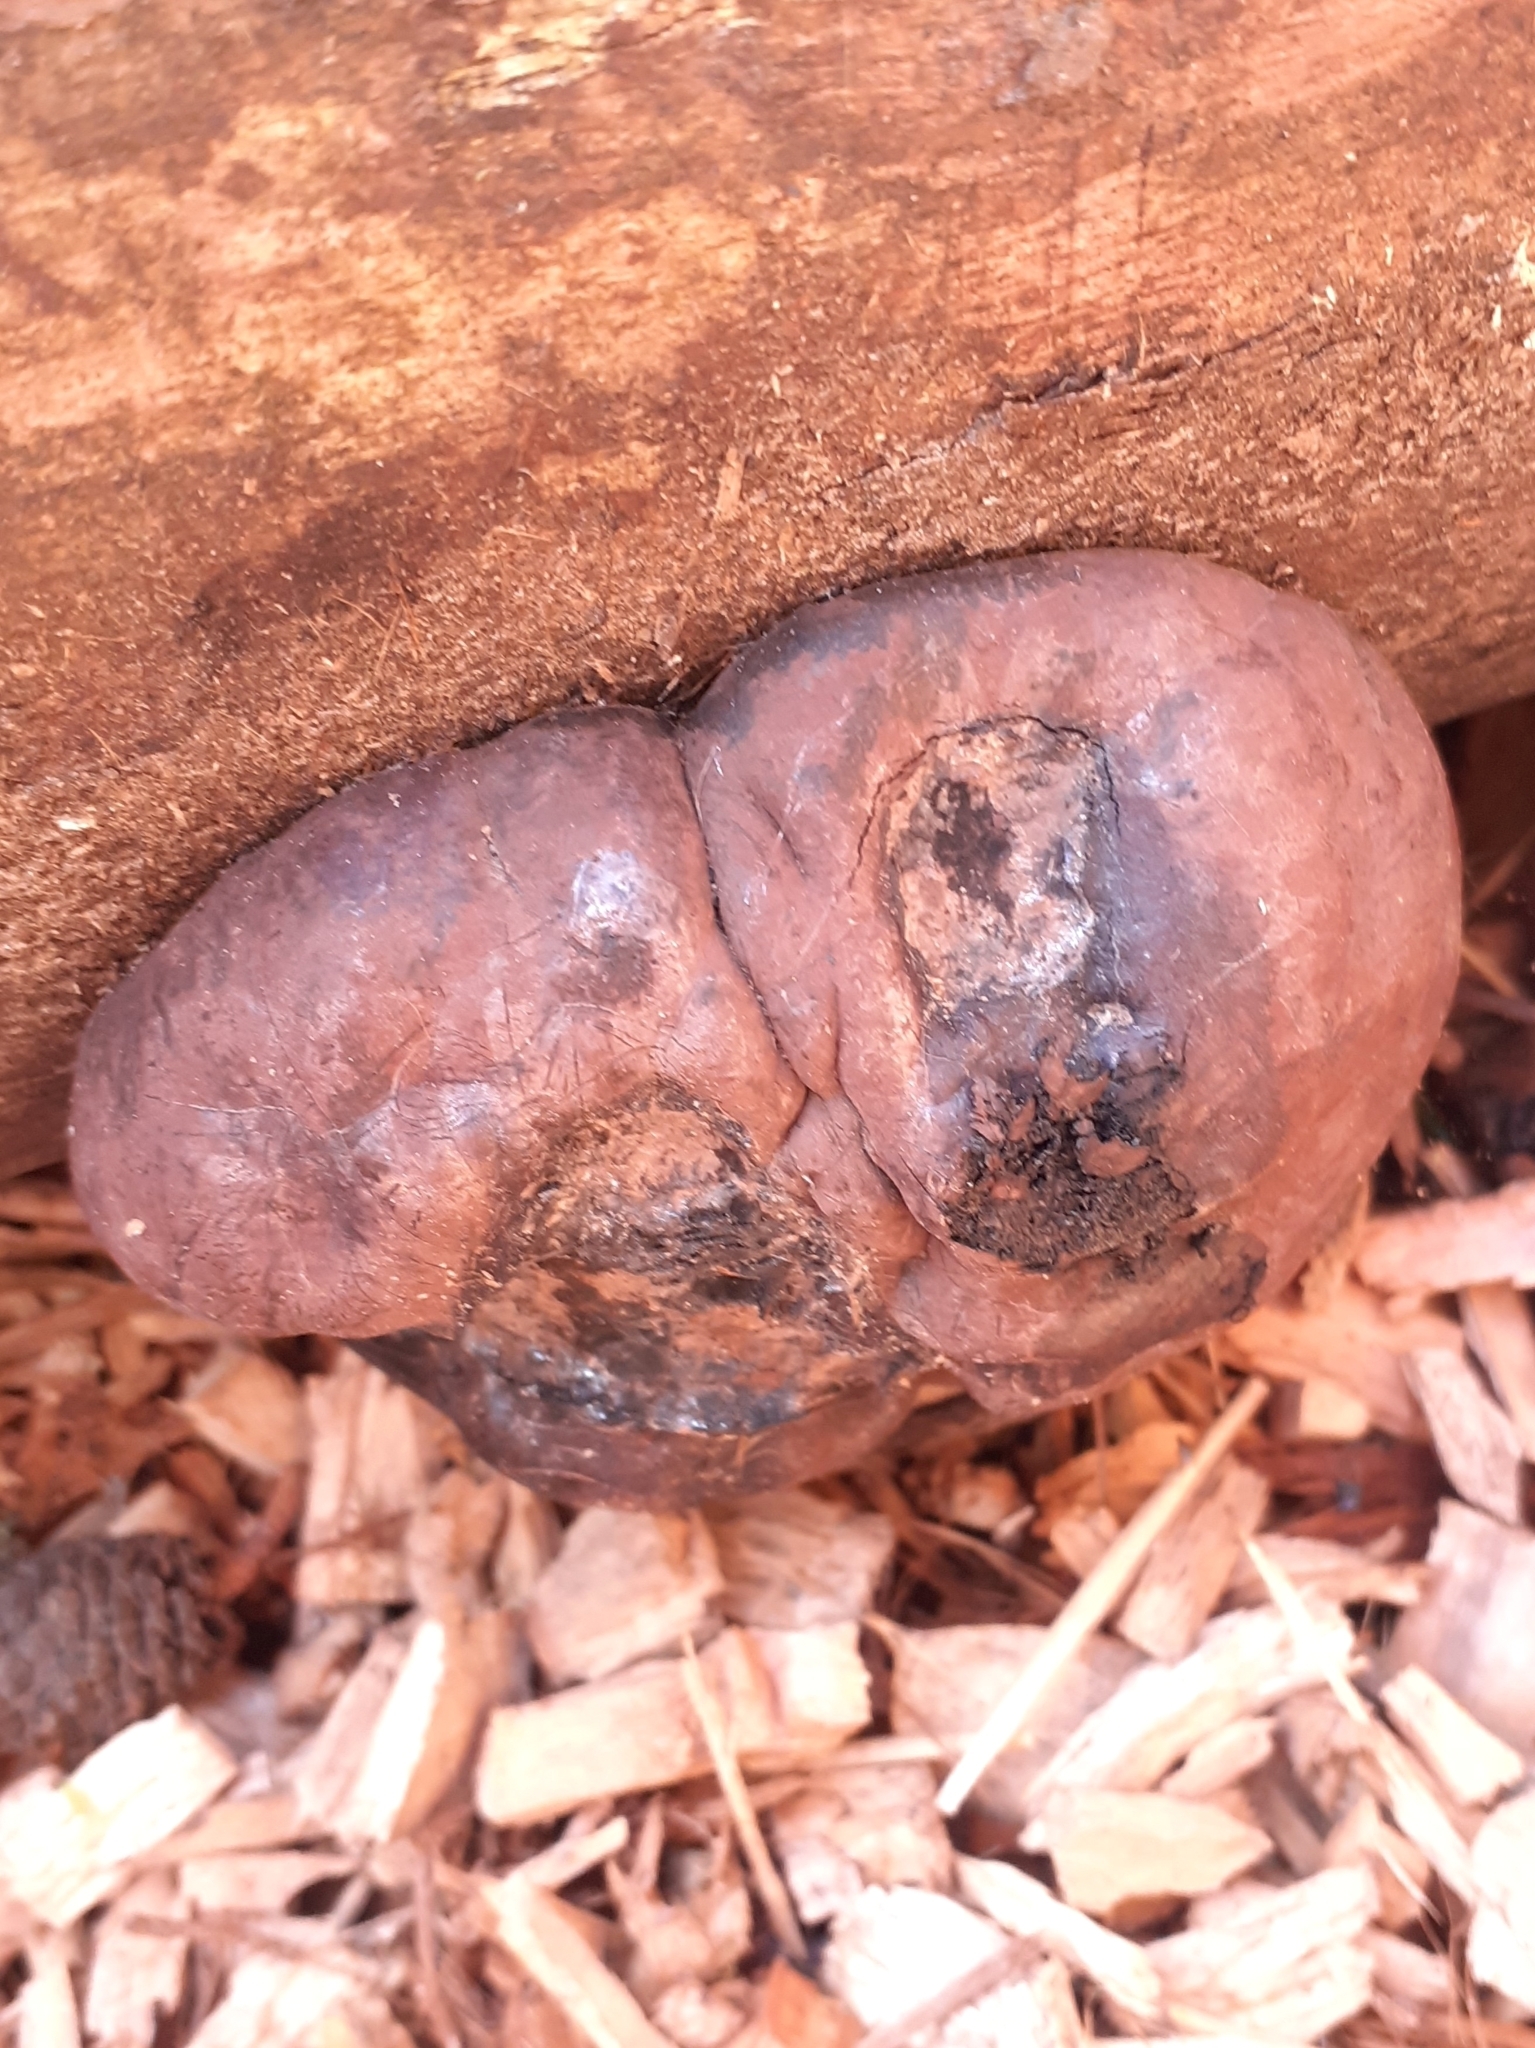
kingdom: Fungi
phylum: Ascomycota
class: Sordariomycetes
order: Xylariales
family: Hypoxylaceae
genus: Daldinia
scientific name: Daldinia concentrica
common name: Cramp balls
